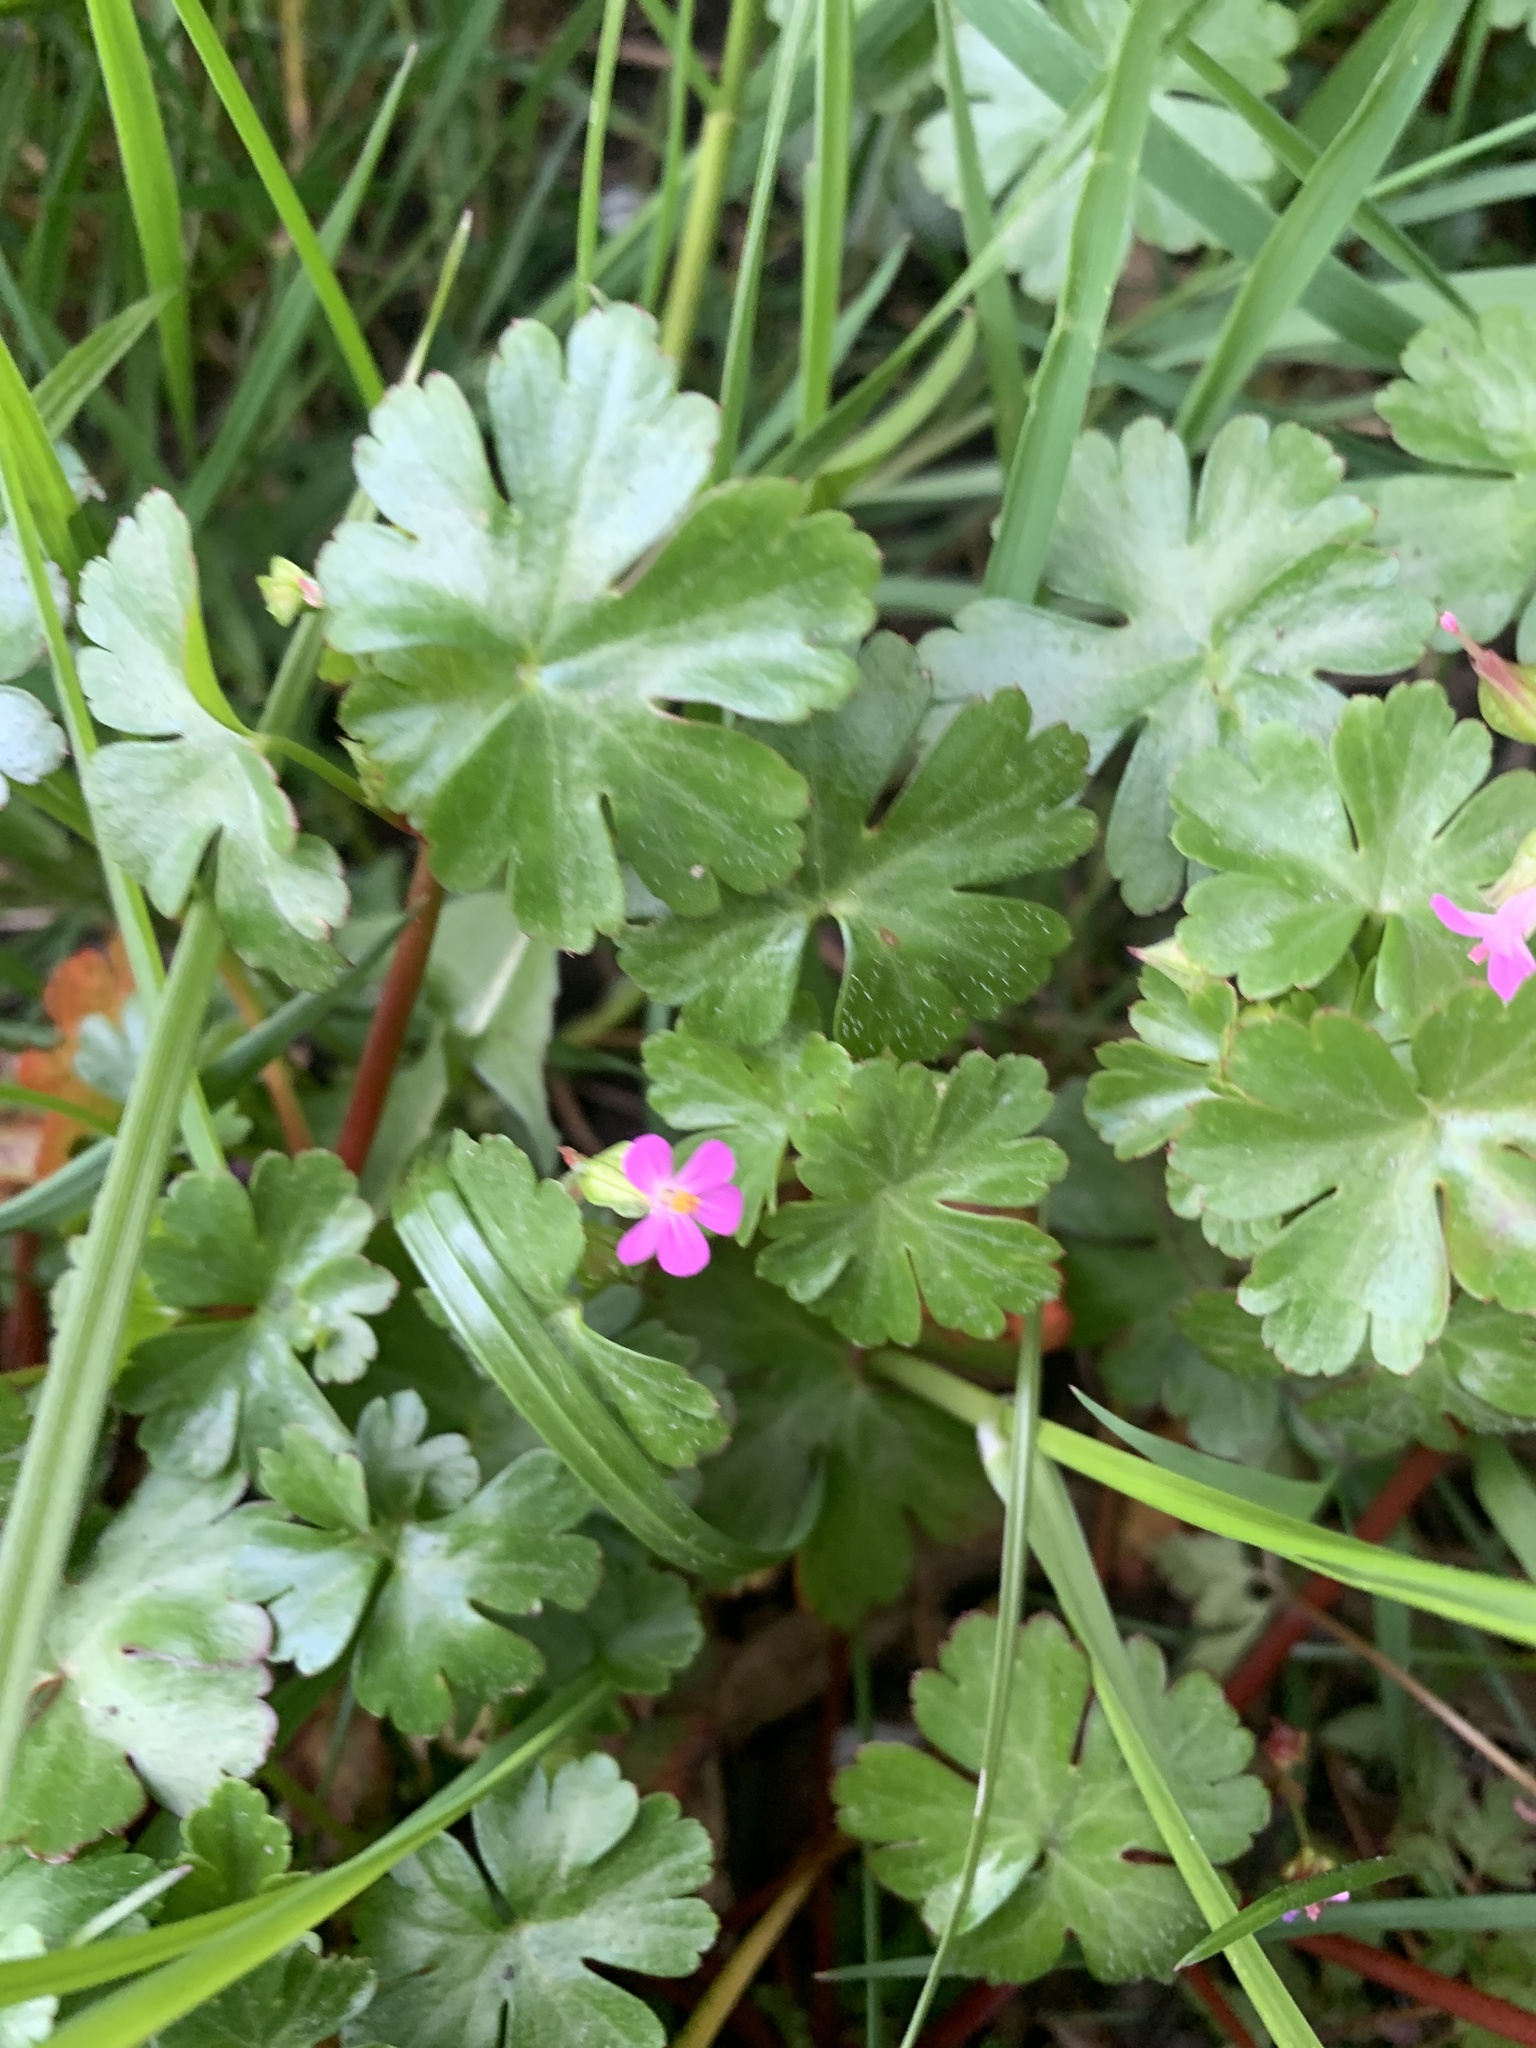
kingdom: Plantae
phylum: Tracheophyta
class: Magnoliopsida
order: Geraniales
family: Geraniaceae
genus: Geranium
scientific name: Geranium lucidum
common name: Shining crane's-bill
